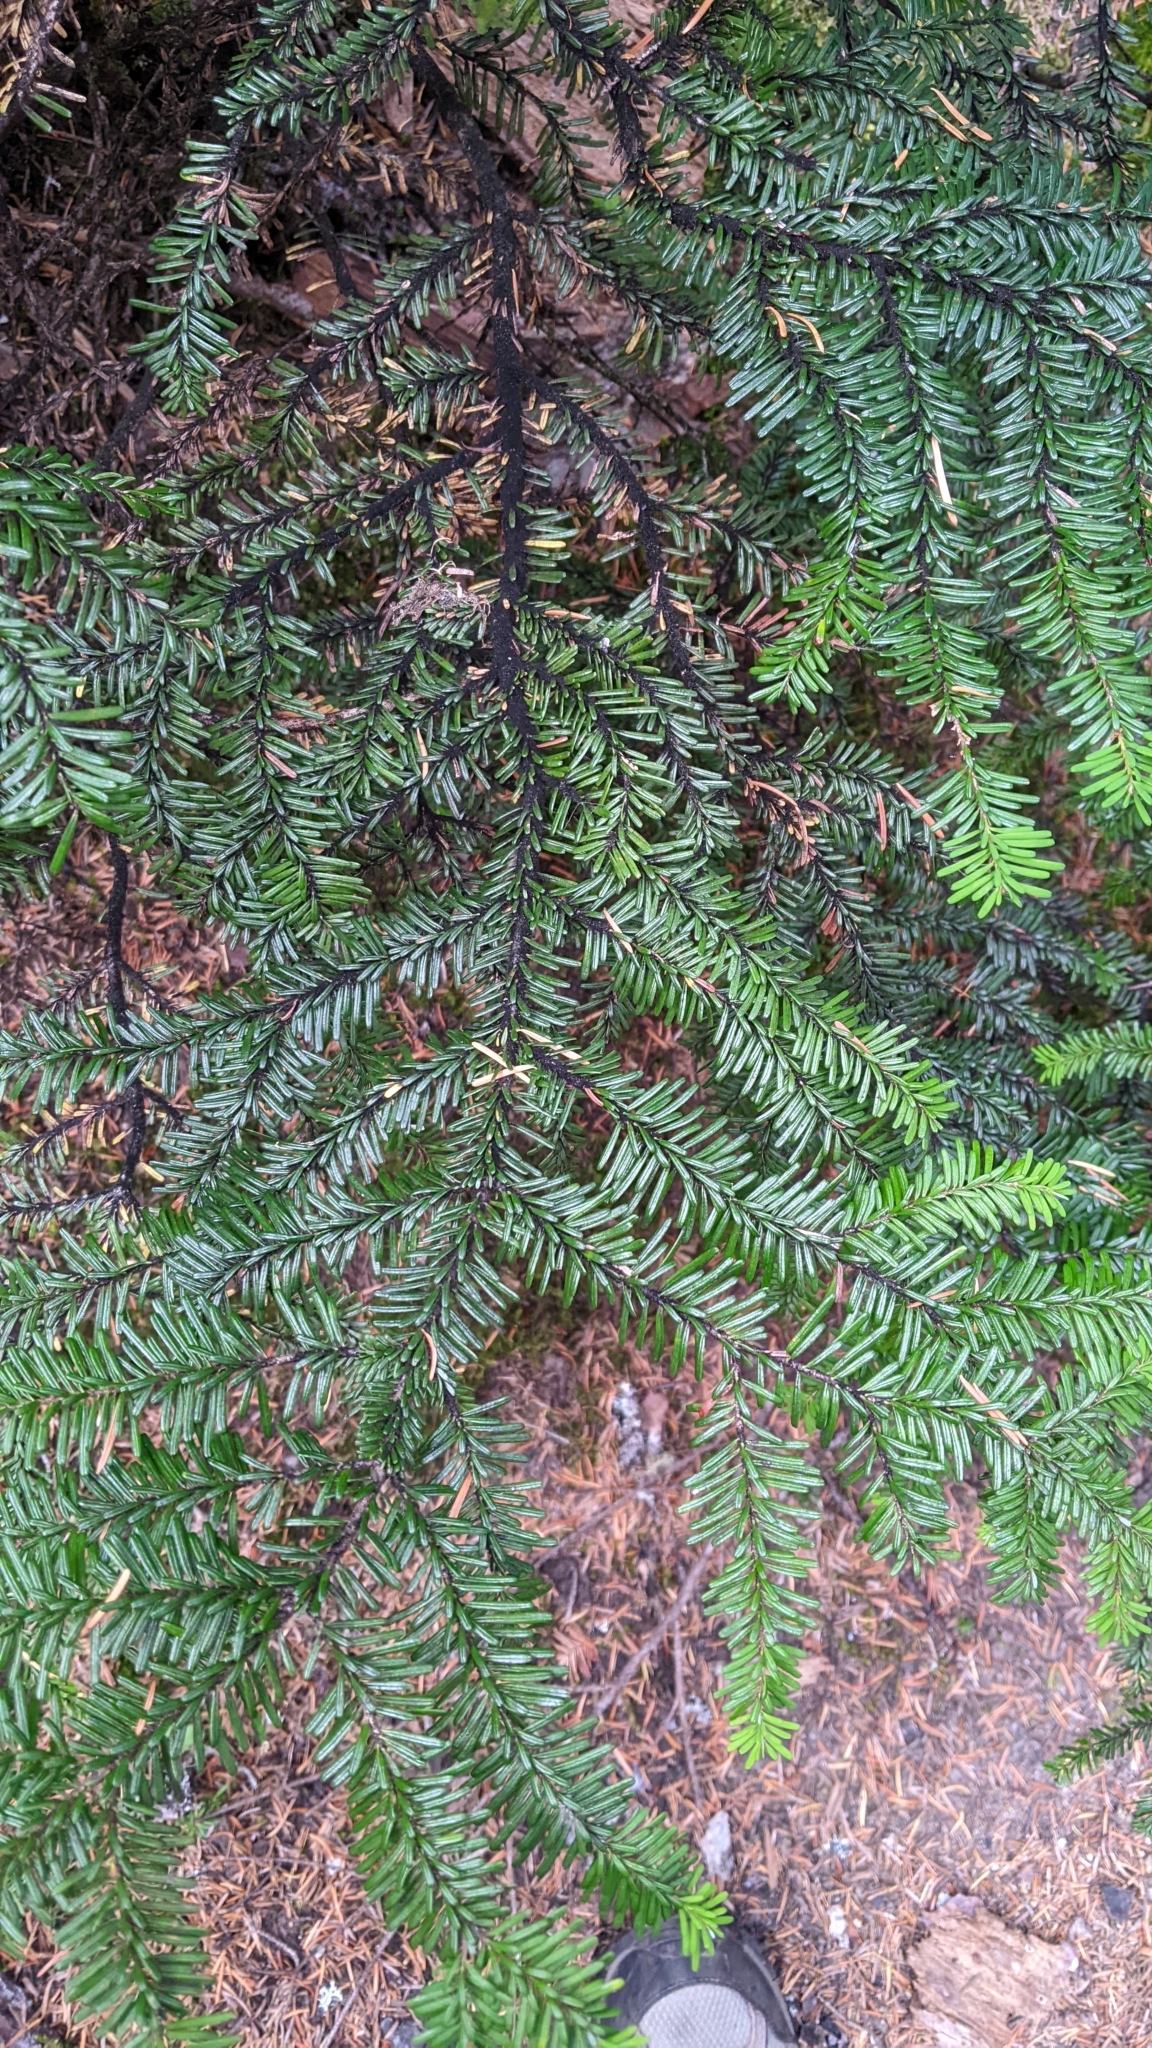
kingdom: Plantae
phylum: Tracheophyta
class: Pinopsida
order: Pinales
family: Pinaceae
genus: Abies
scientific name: Abies amabilis
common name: Pacific silver fir
